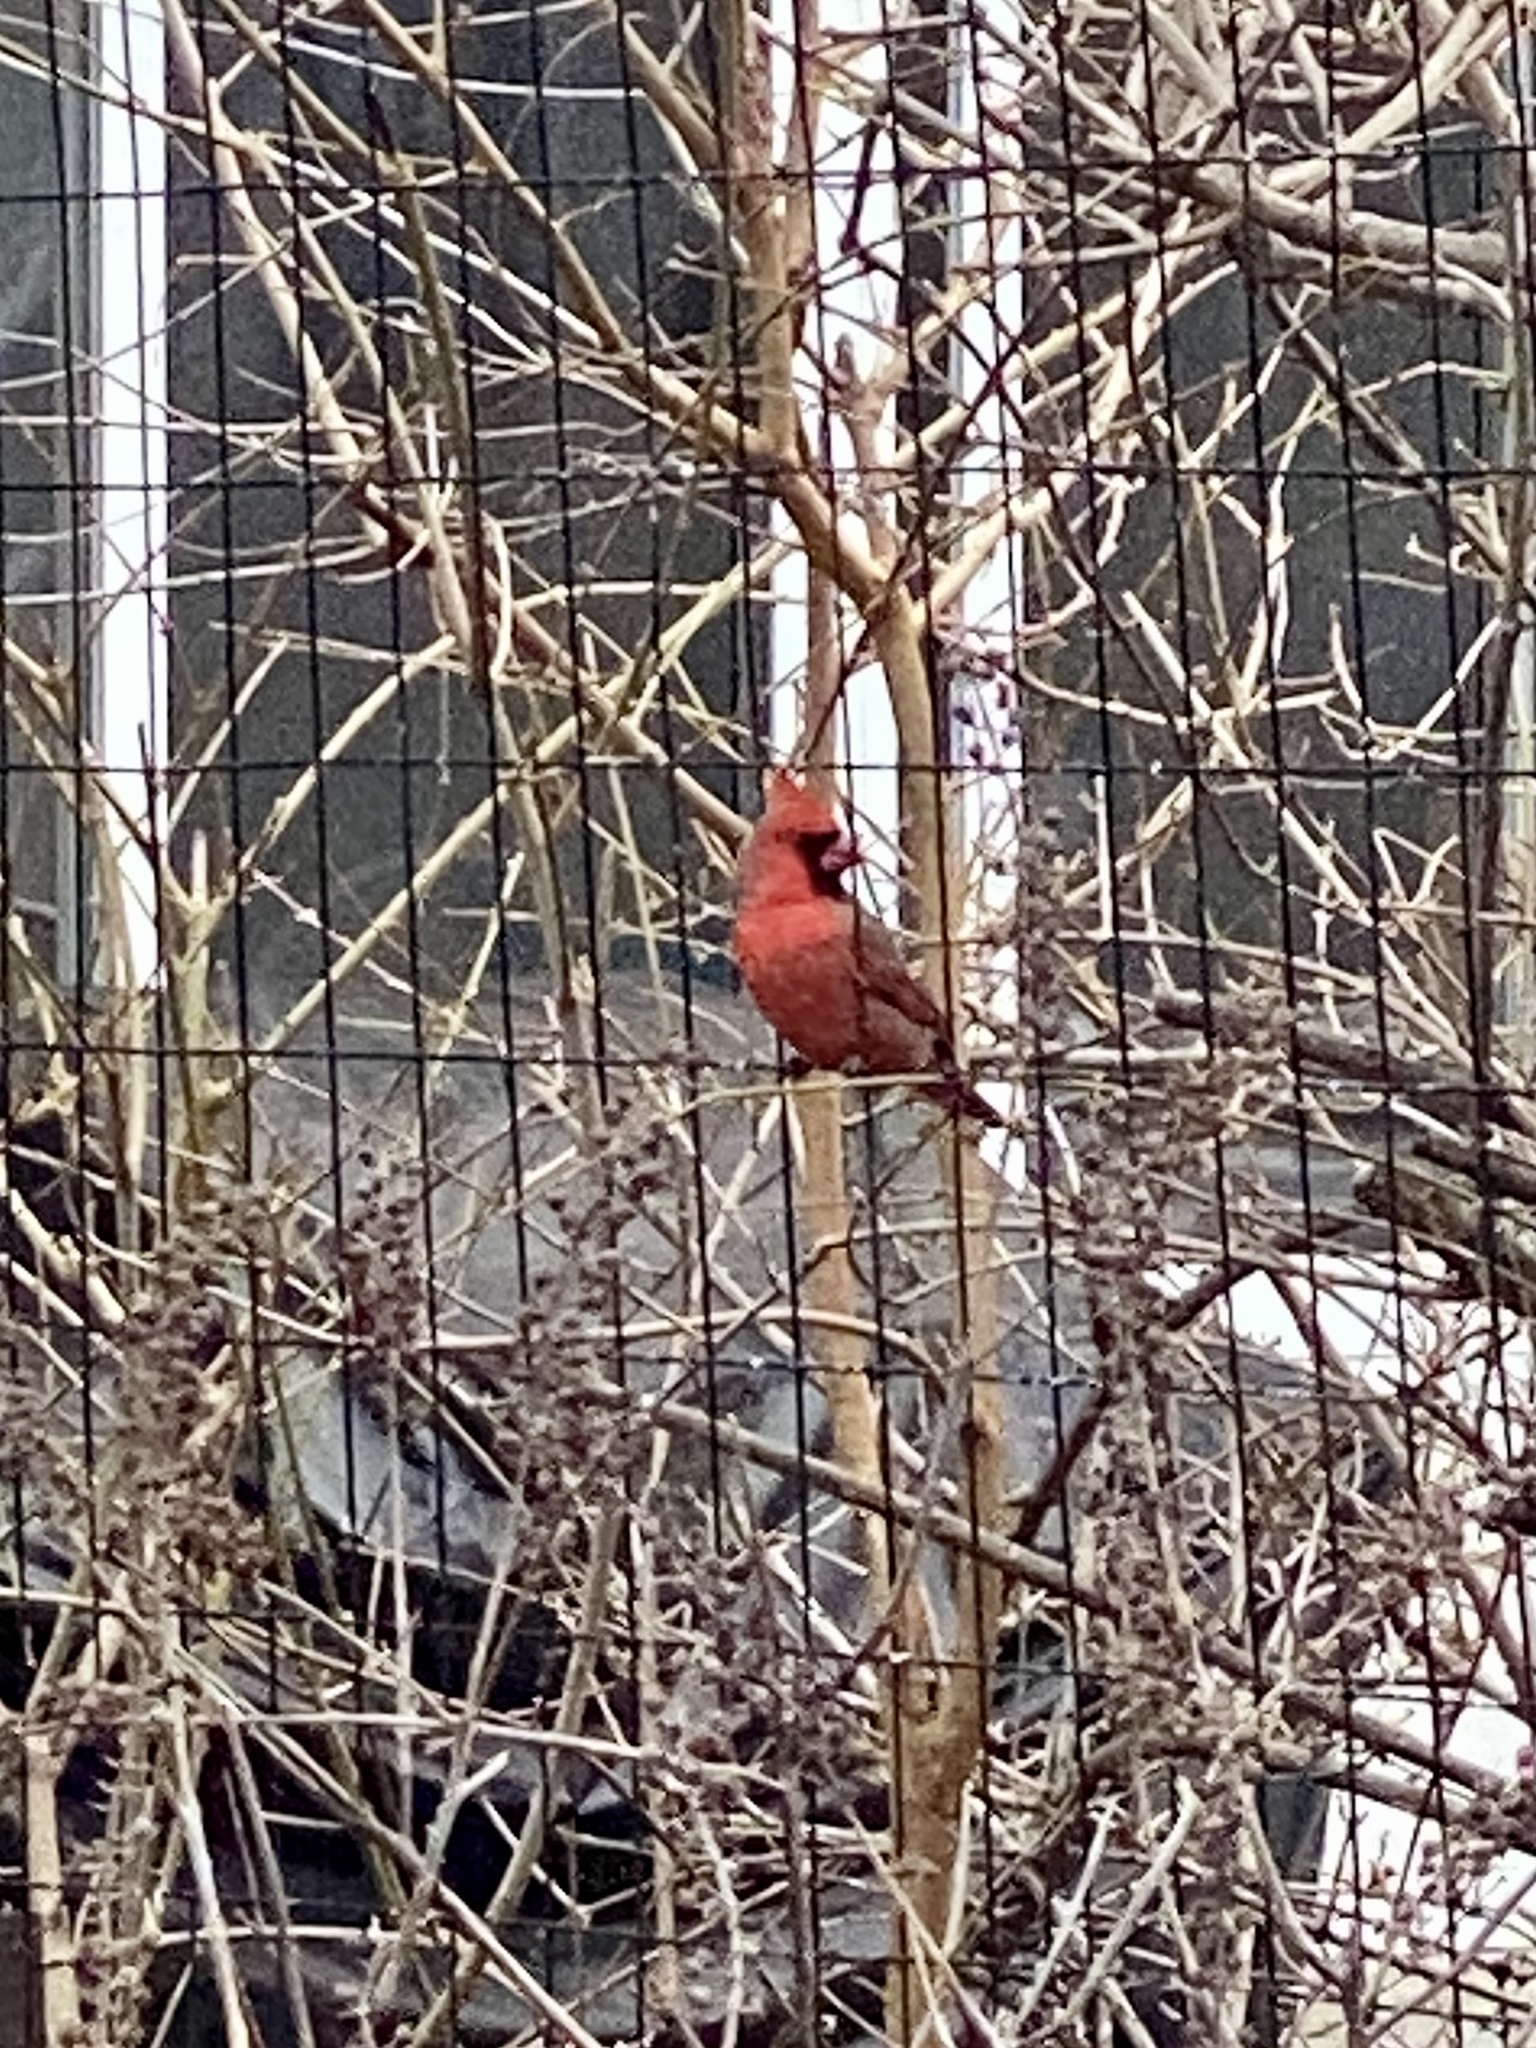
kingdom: Animalia
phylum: Chordata
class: Aves
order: Passeriformes
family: Cardinalidae
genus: Cardinalis
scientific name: Cardinalis cardinalis
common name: Northern cardinal
